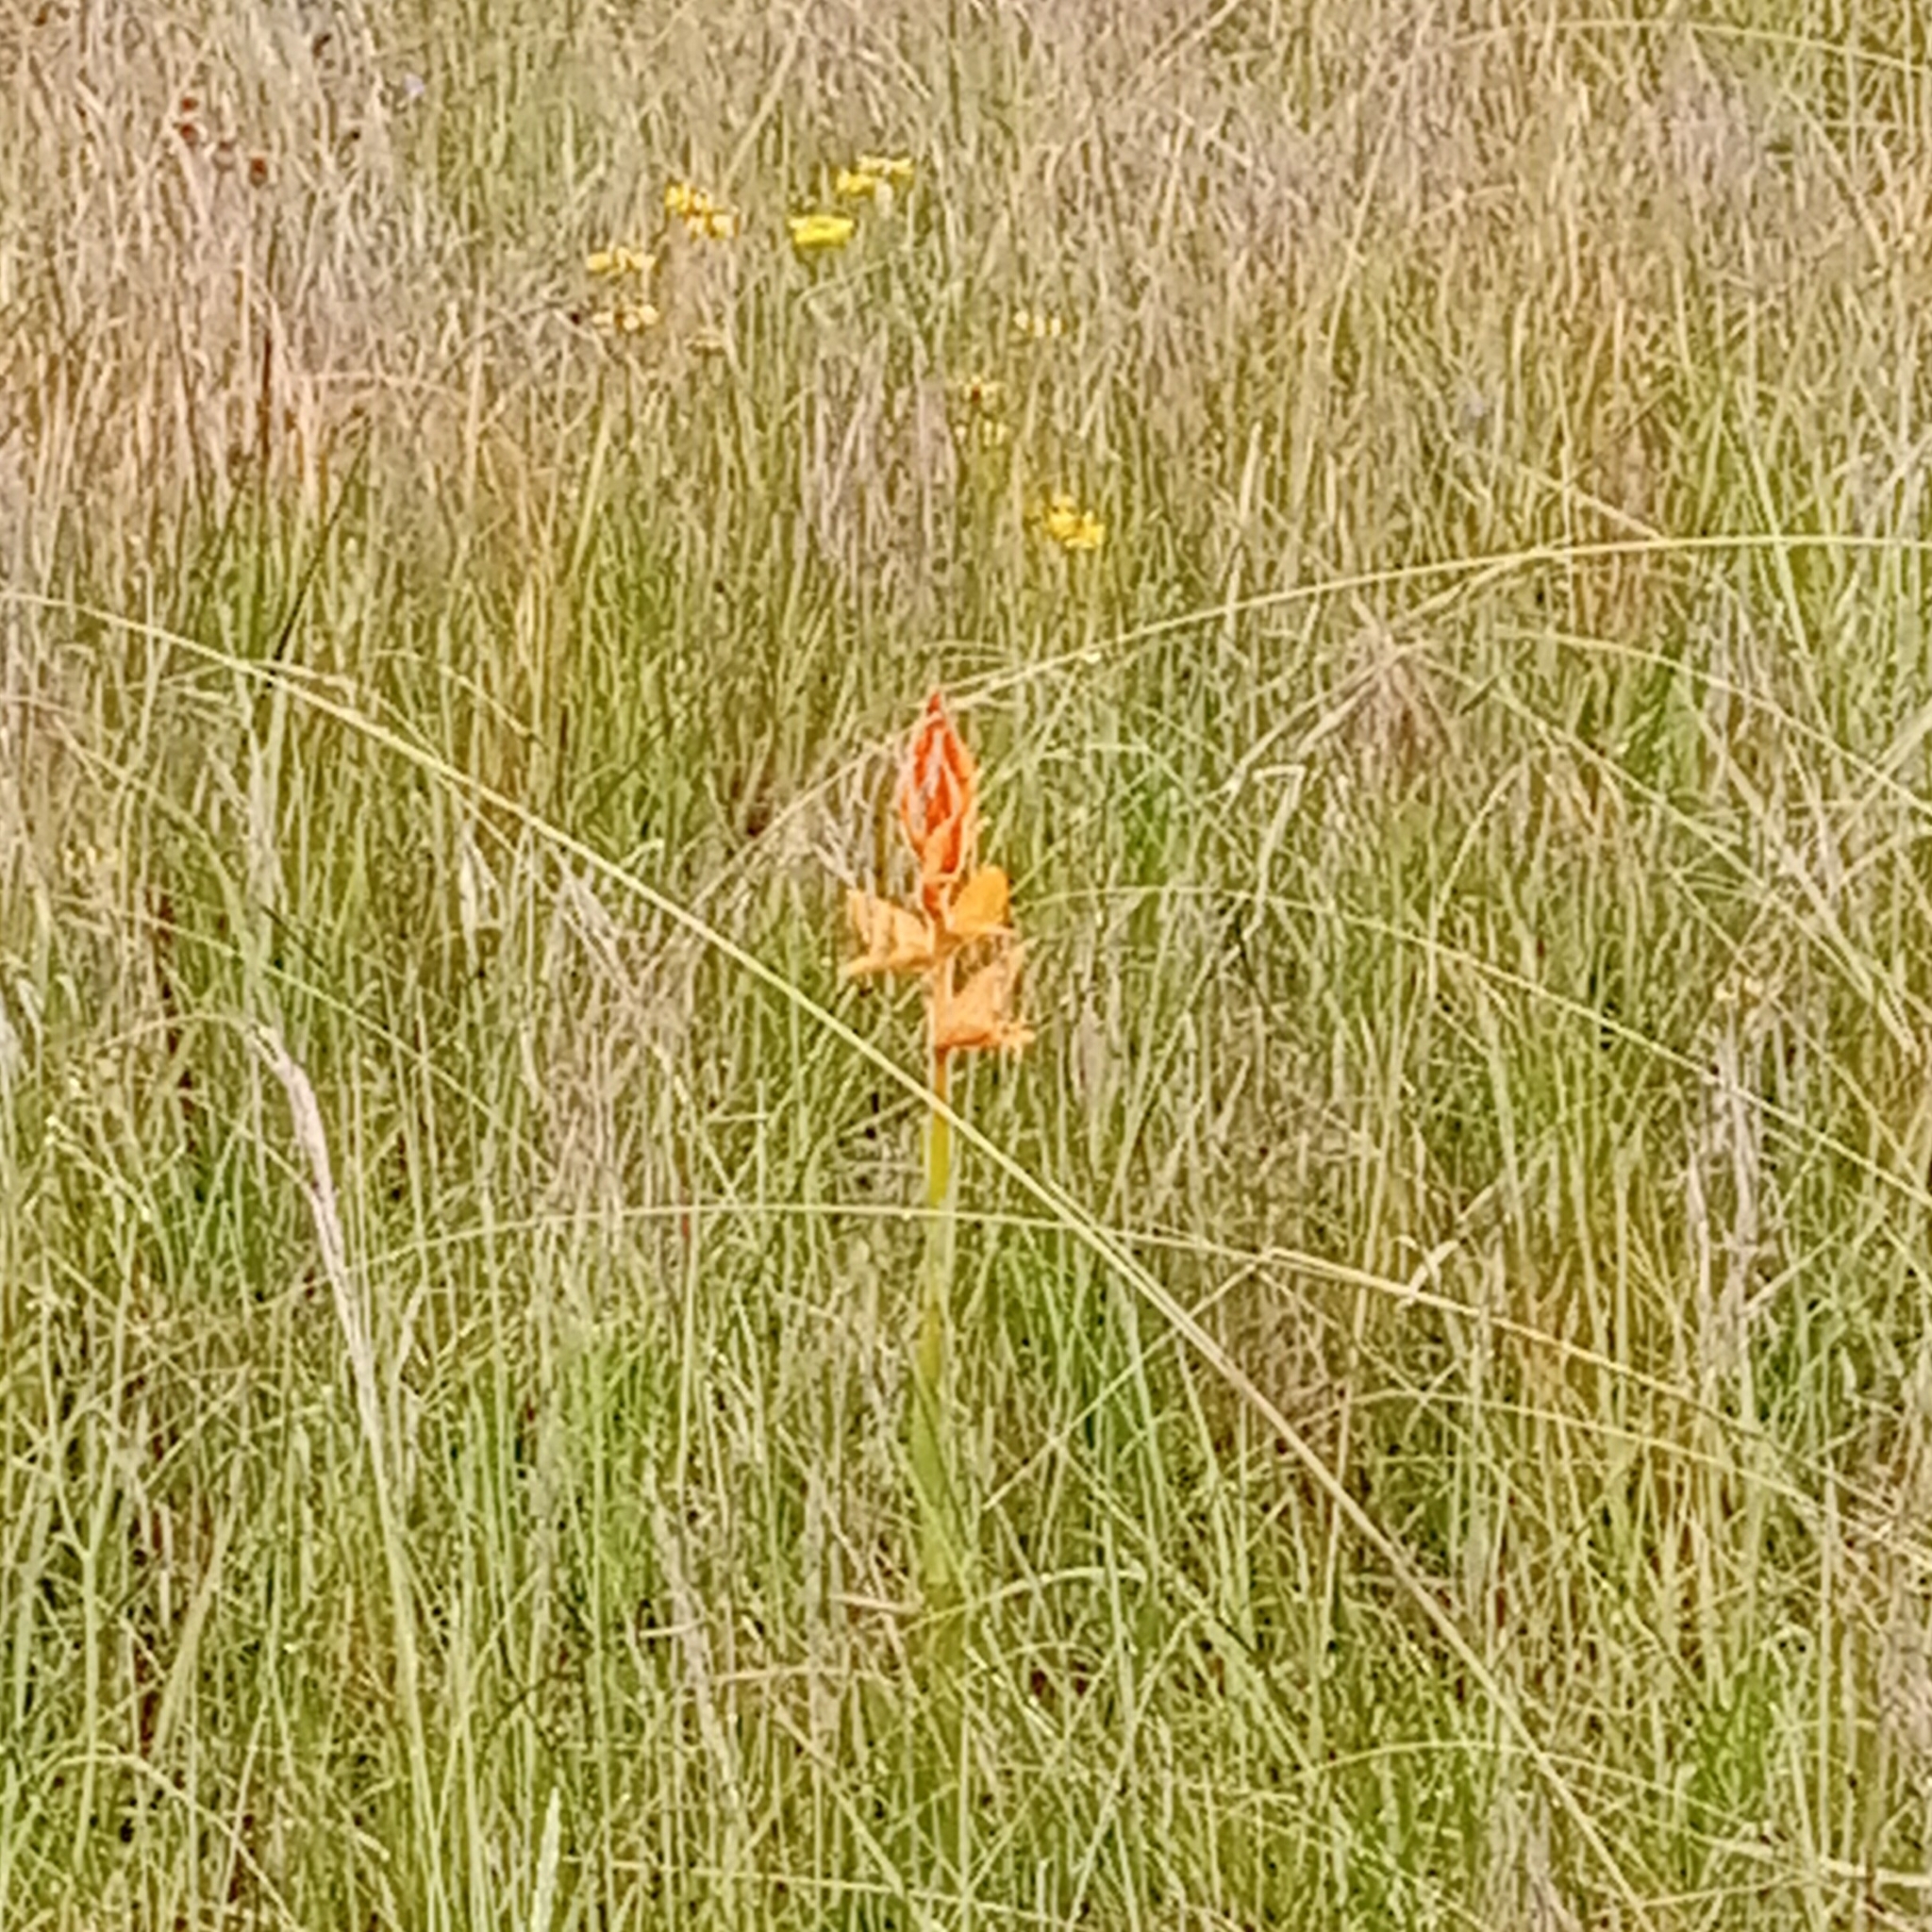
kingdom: Plantae
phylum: Tracheophyta
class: Liliopsida
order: Asparagales
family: Orchidaceae
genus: Dichromanthus
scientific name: Dichromanthus aurantiacus
